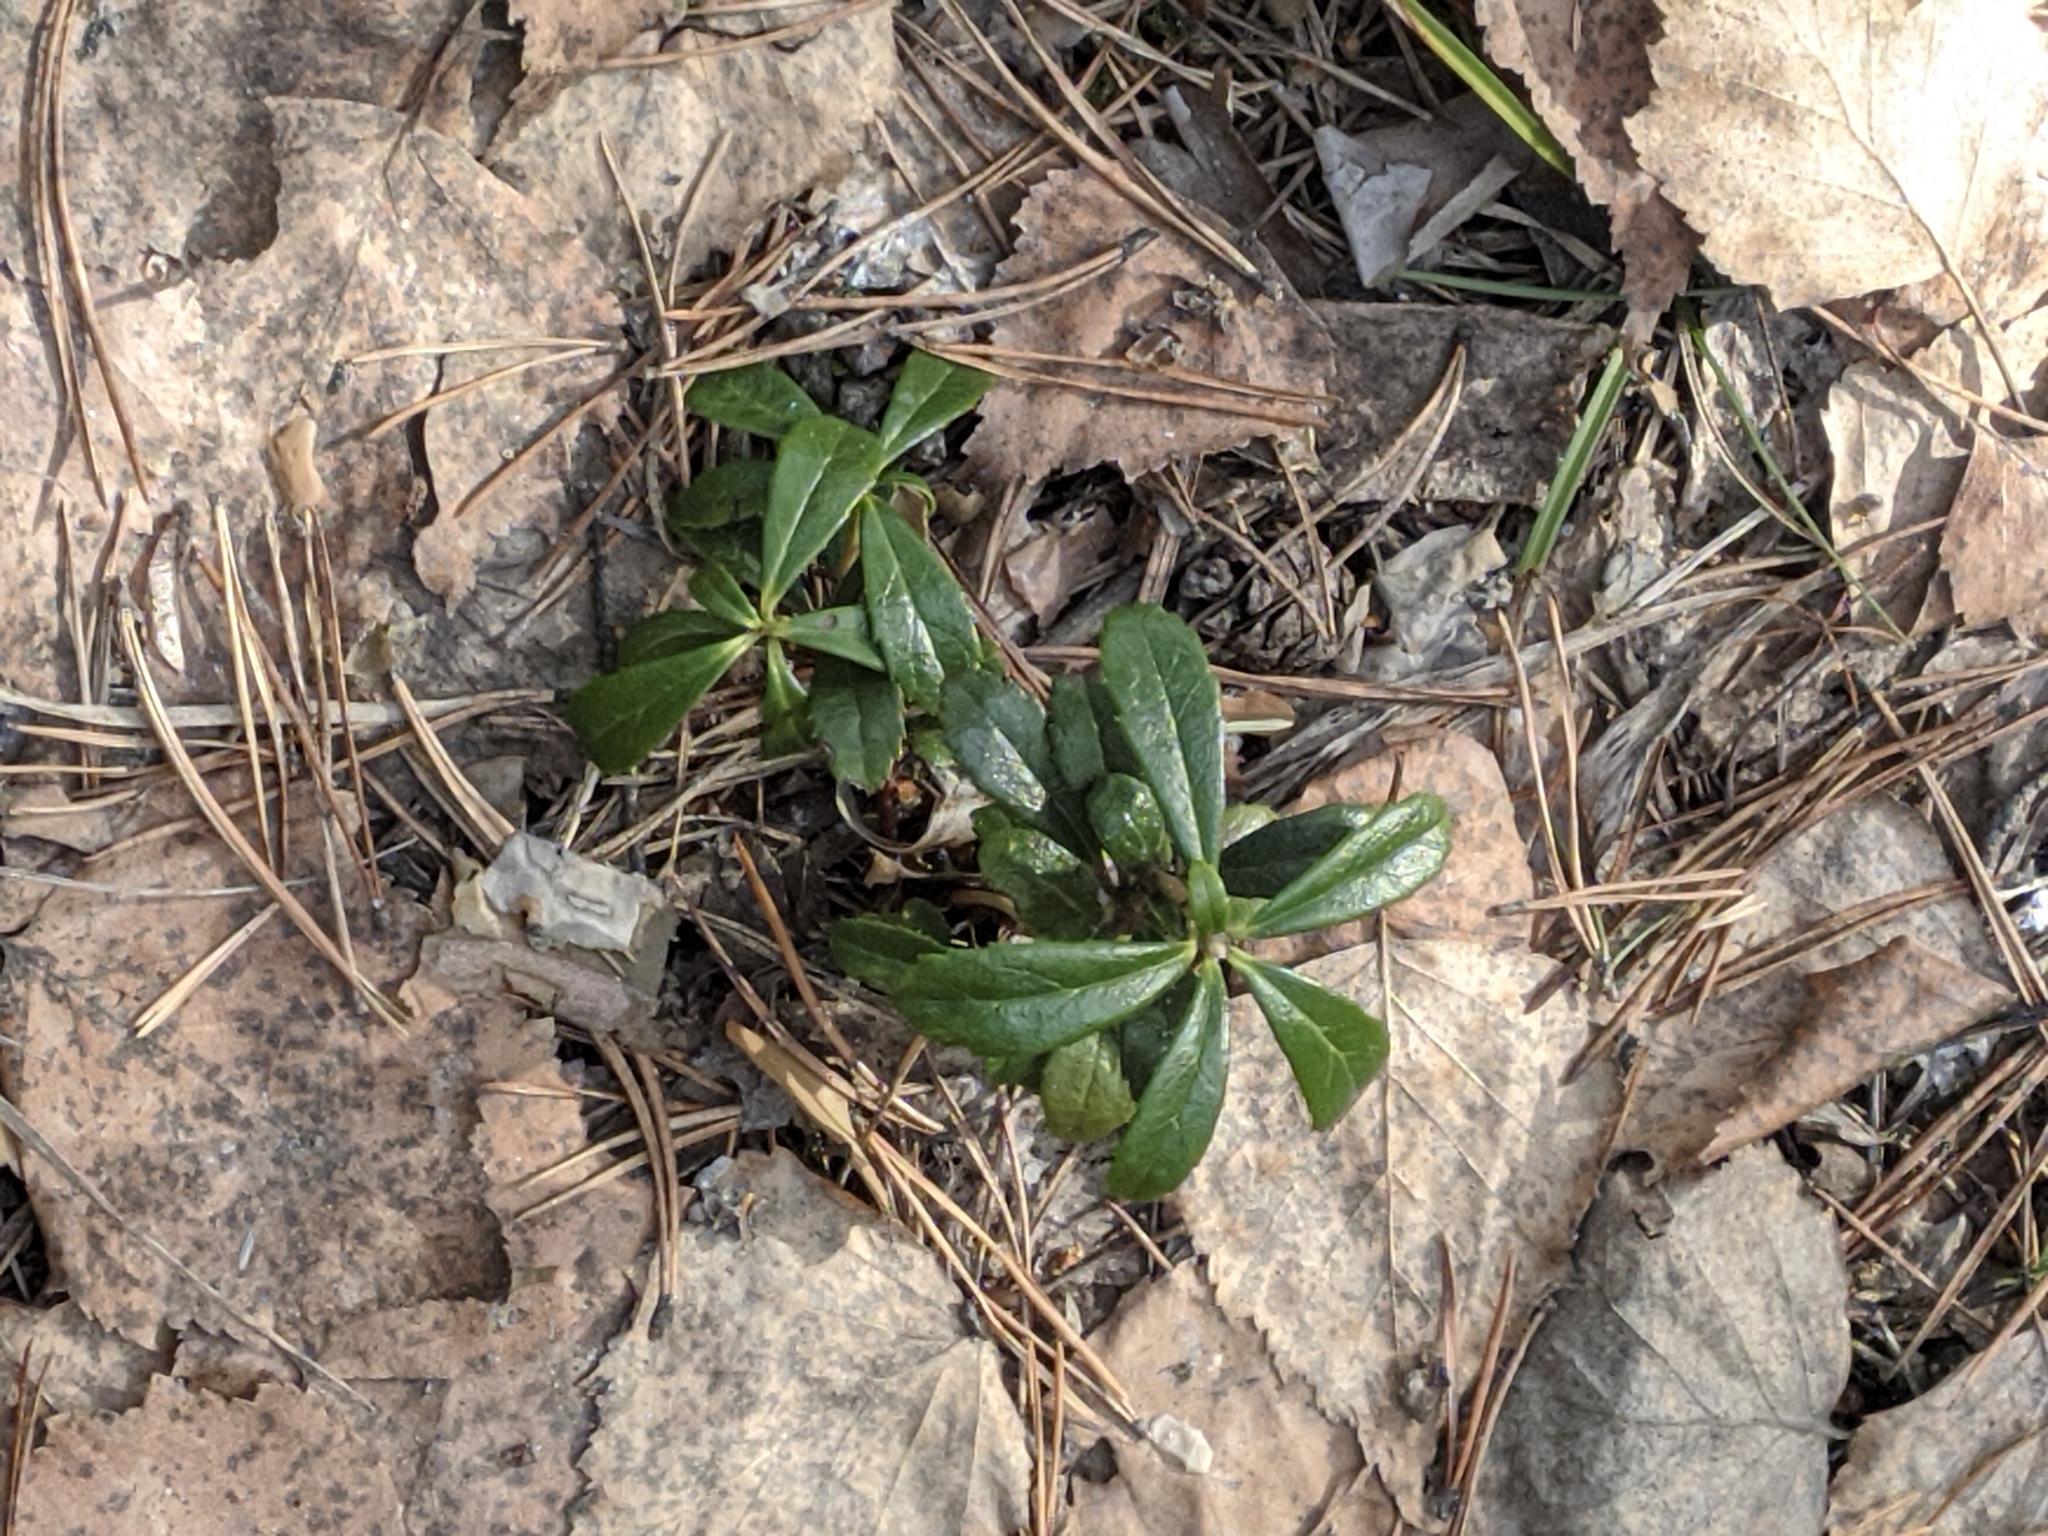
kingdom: Plantae
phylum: Tracheophyta
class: Magnoliopsida
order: Ericales
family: Ericaceae
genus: Chimaphila
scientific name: Chimaphila umbellata
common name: Pipsissewa
